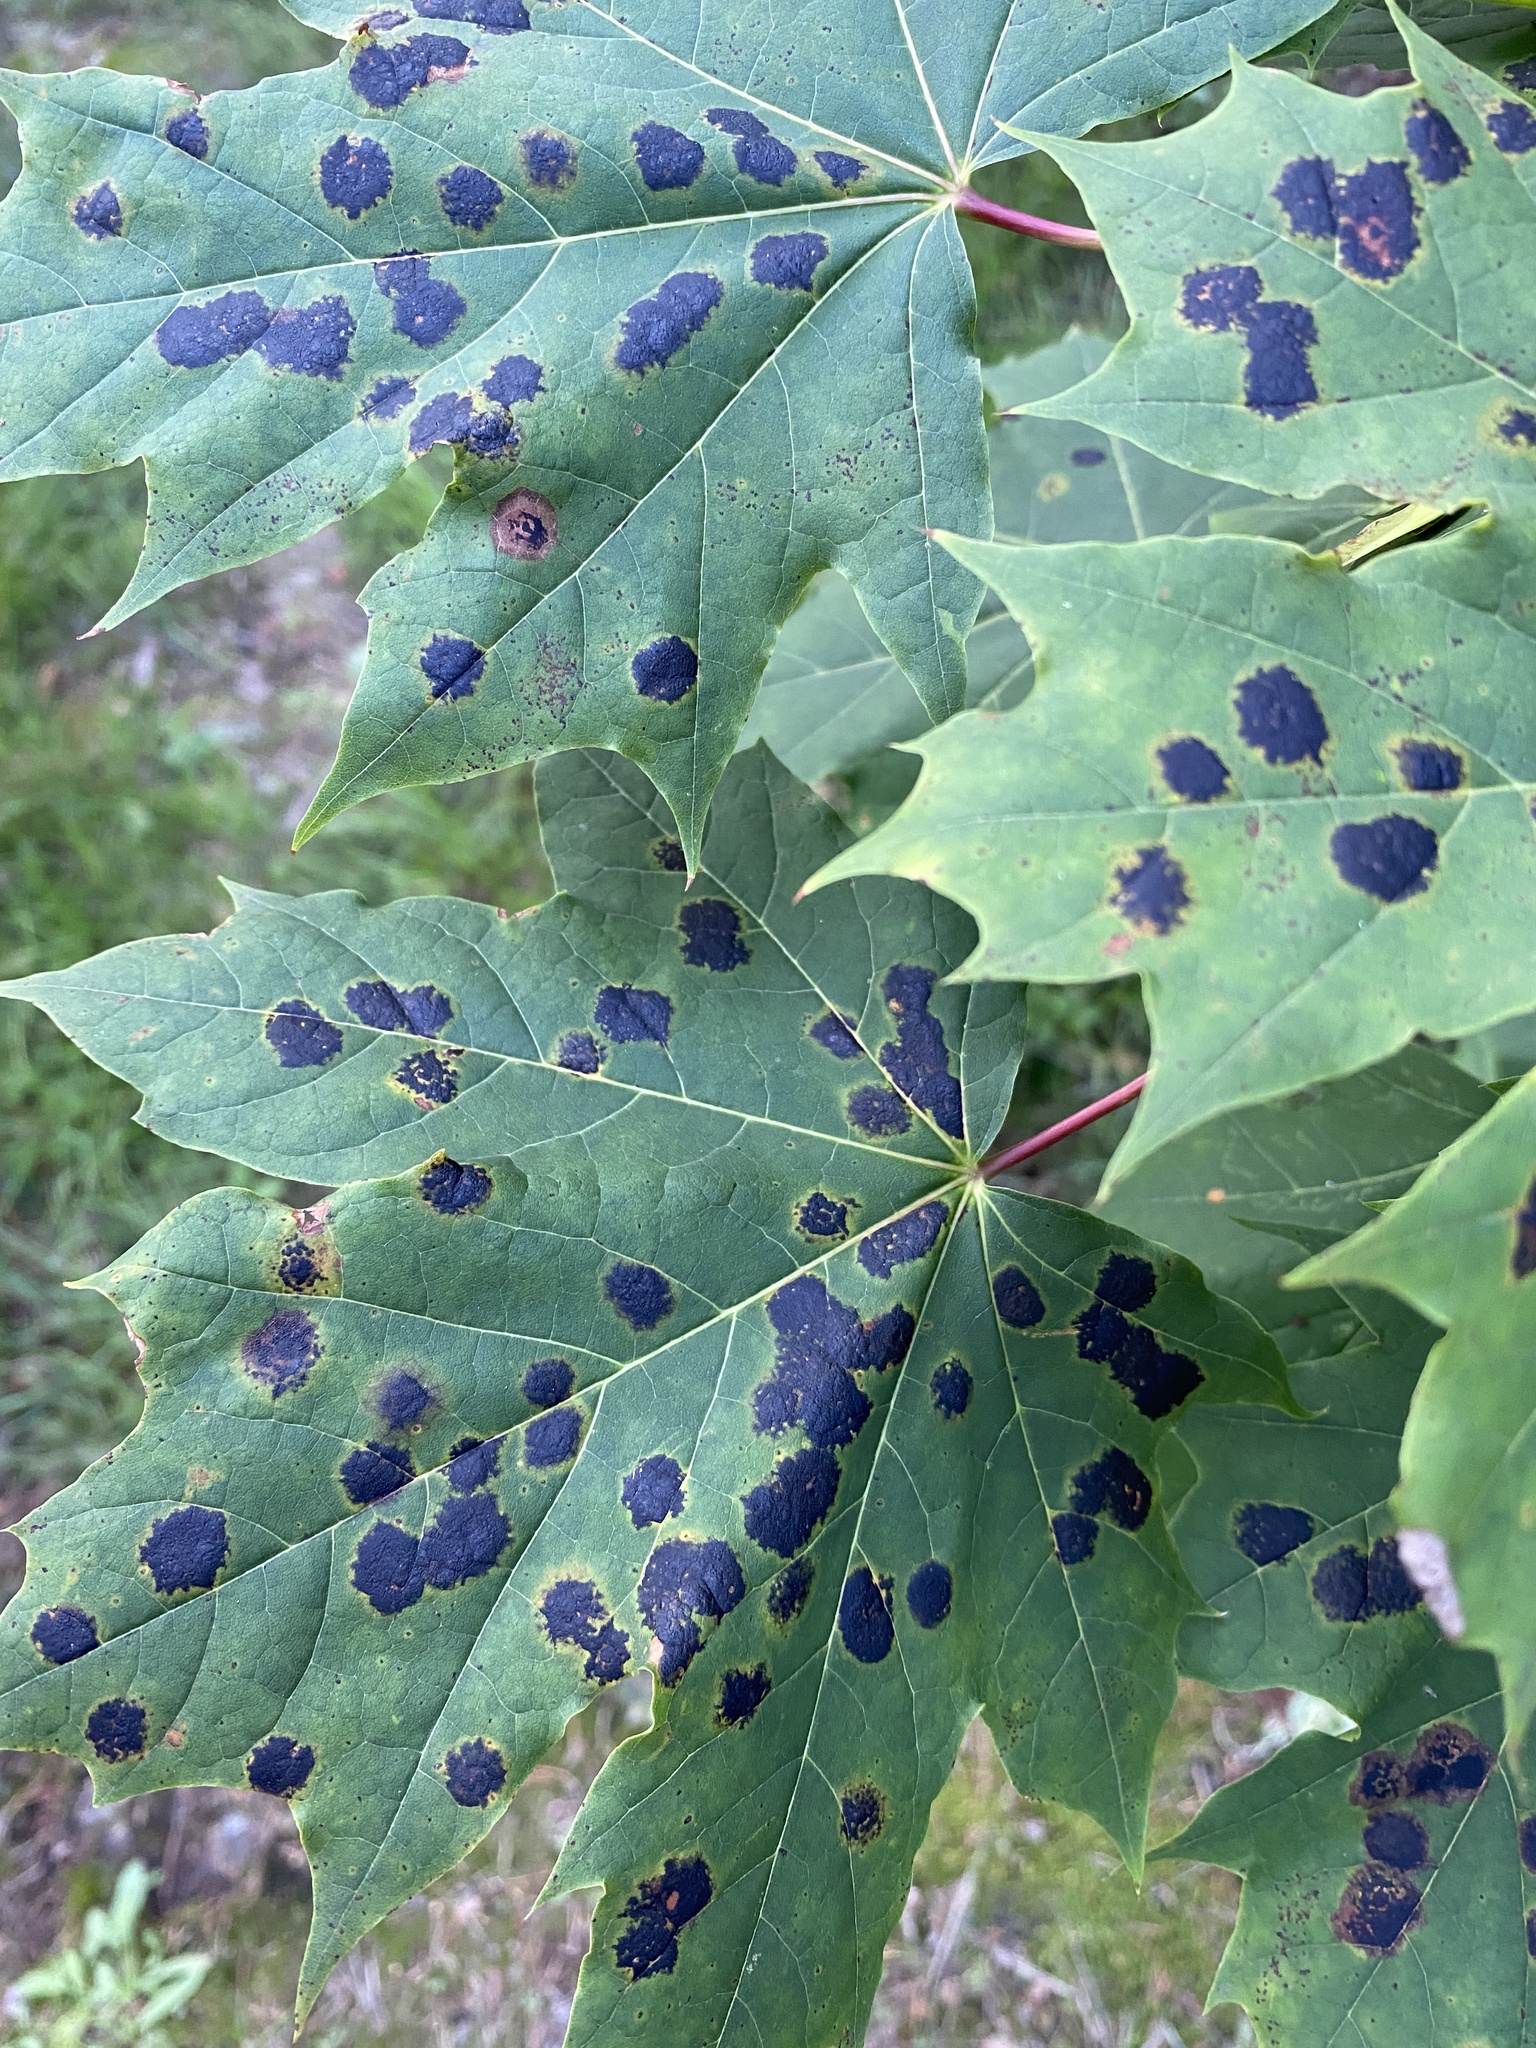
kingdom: Fungi
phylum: Ascomycota
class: Leotiomycetes
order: Rhytismatales
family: Rhytismataceae
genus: Rhytisma
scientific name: Rhytisma acerinum
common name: European tar spot
